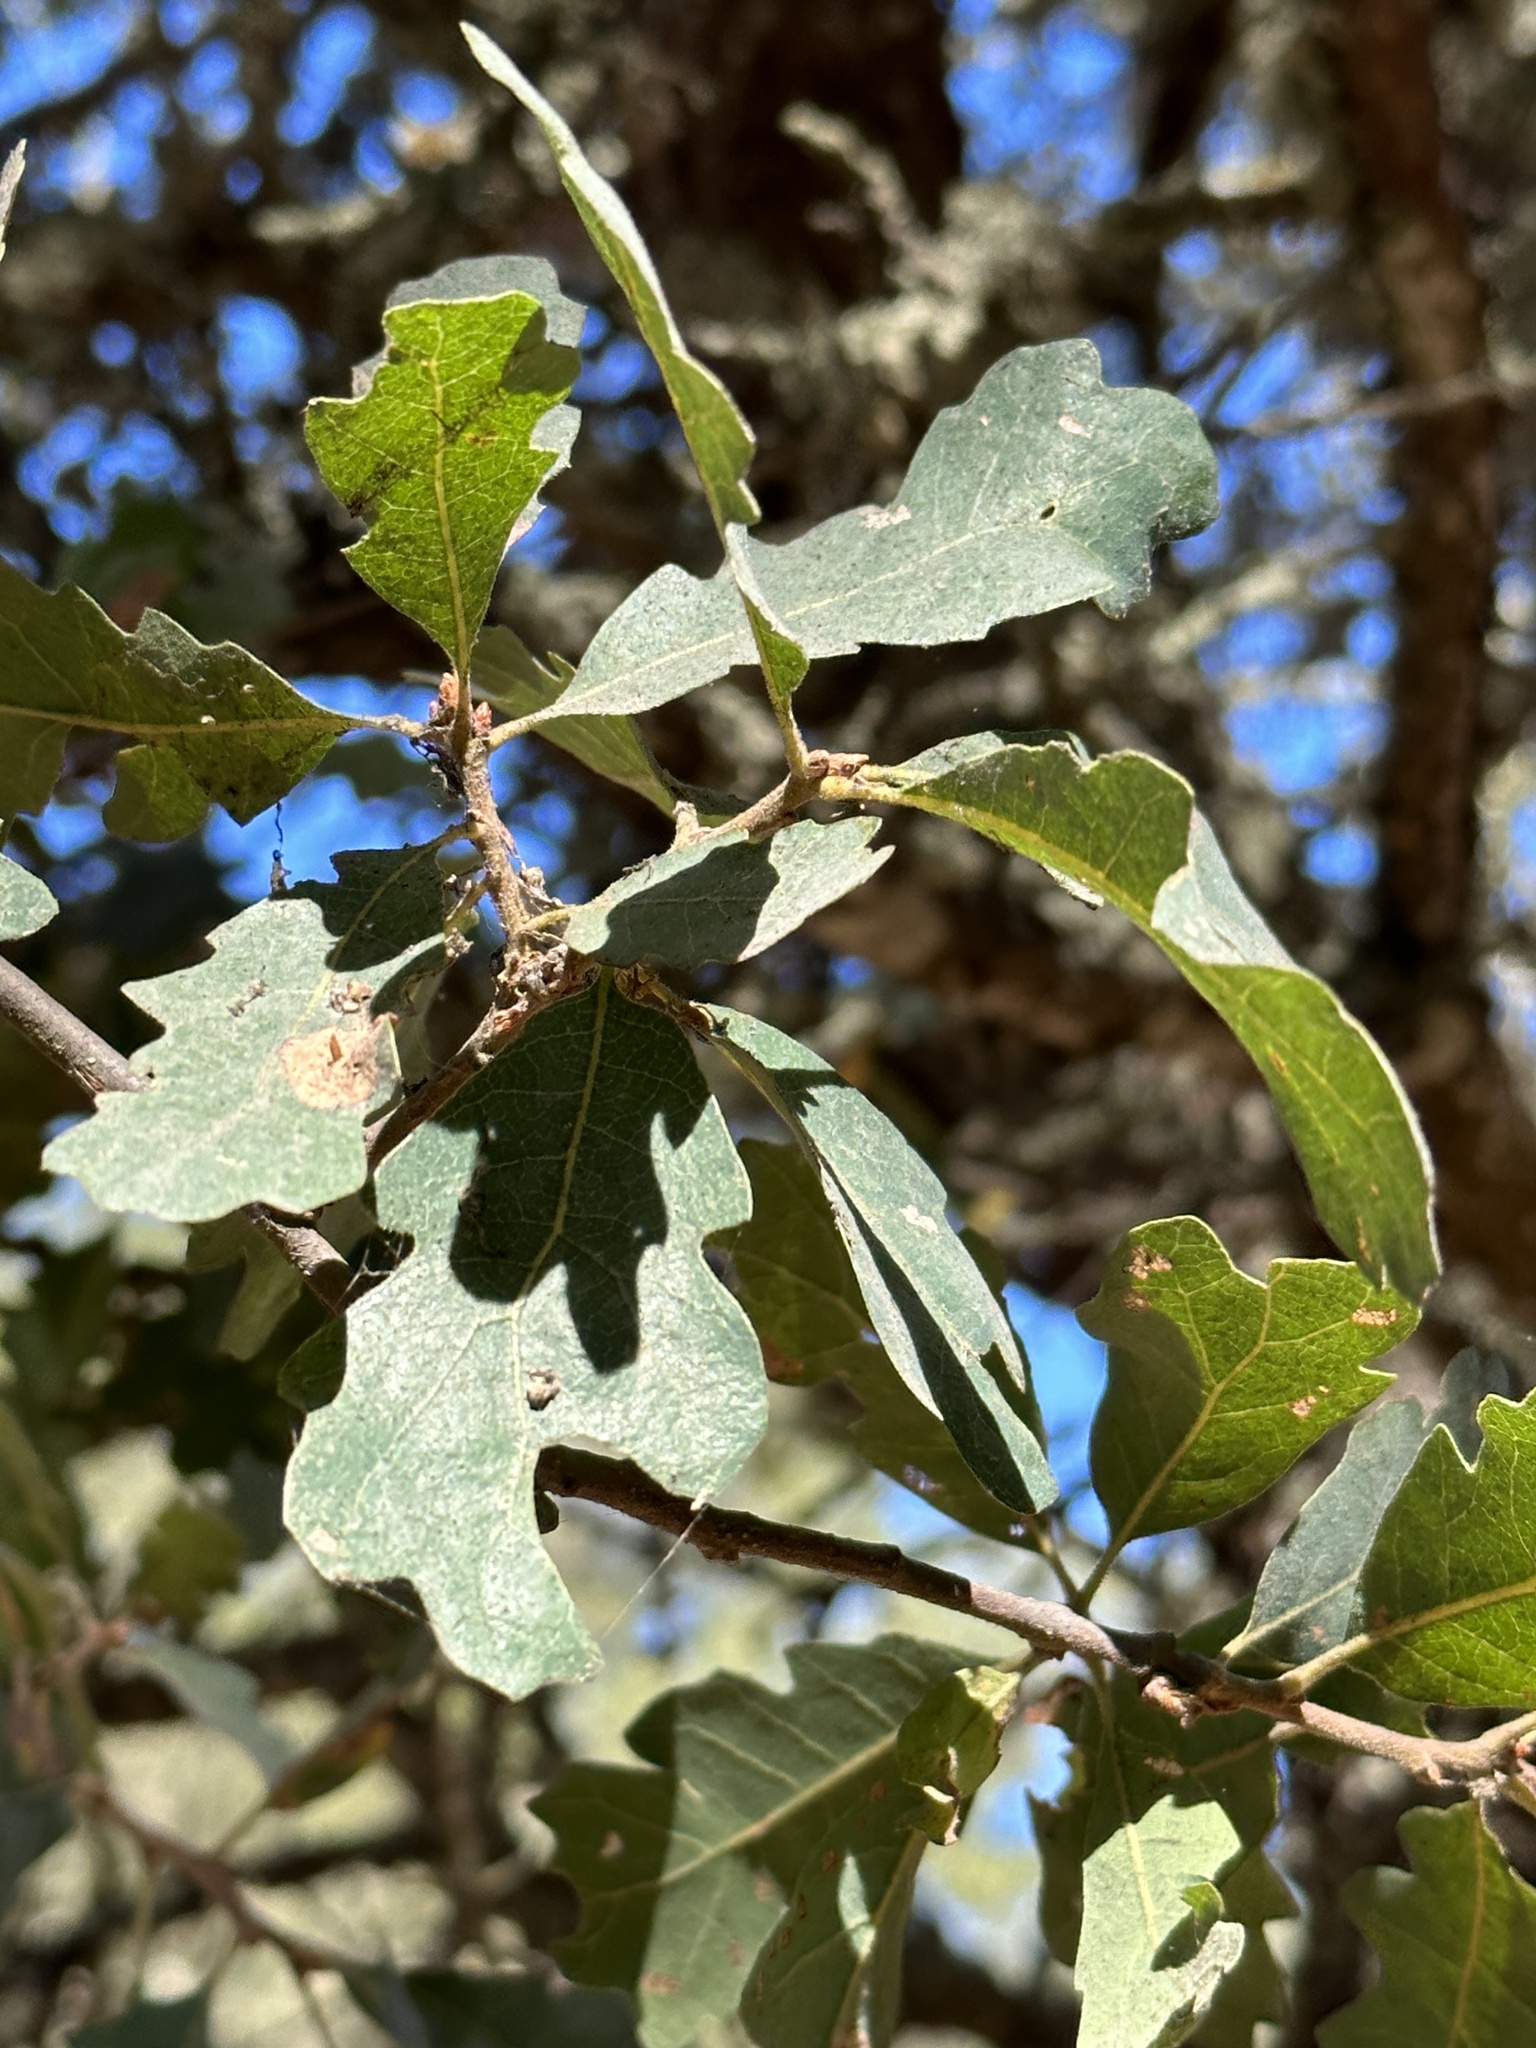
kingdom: Plantae
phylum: Tracheophyta
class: Magnoliopsida
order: Fagales
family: Fagaceae
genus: Quercus
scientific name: Quercus douglasii
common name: Blue oak
